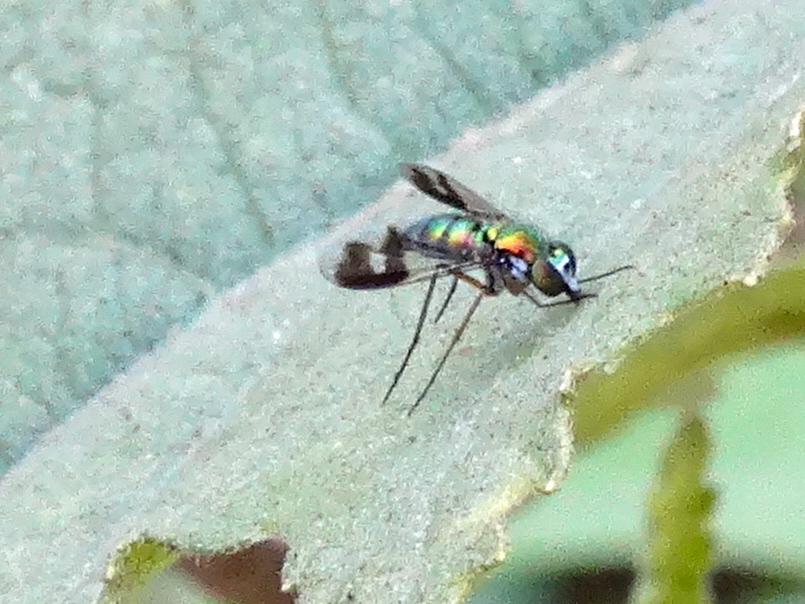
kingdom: Animalia
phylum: Arthropoda
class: Insecta
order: Diptera
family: Dolichopodidae
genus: Condylostylus
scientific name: Condylostylus
